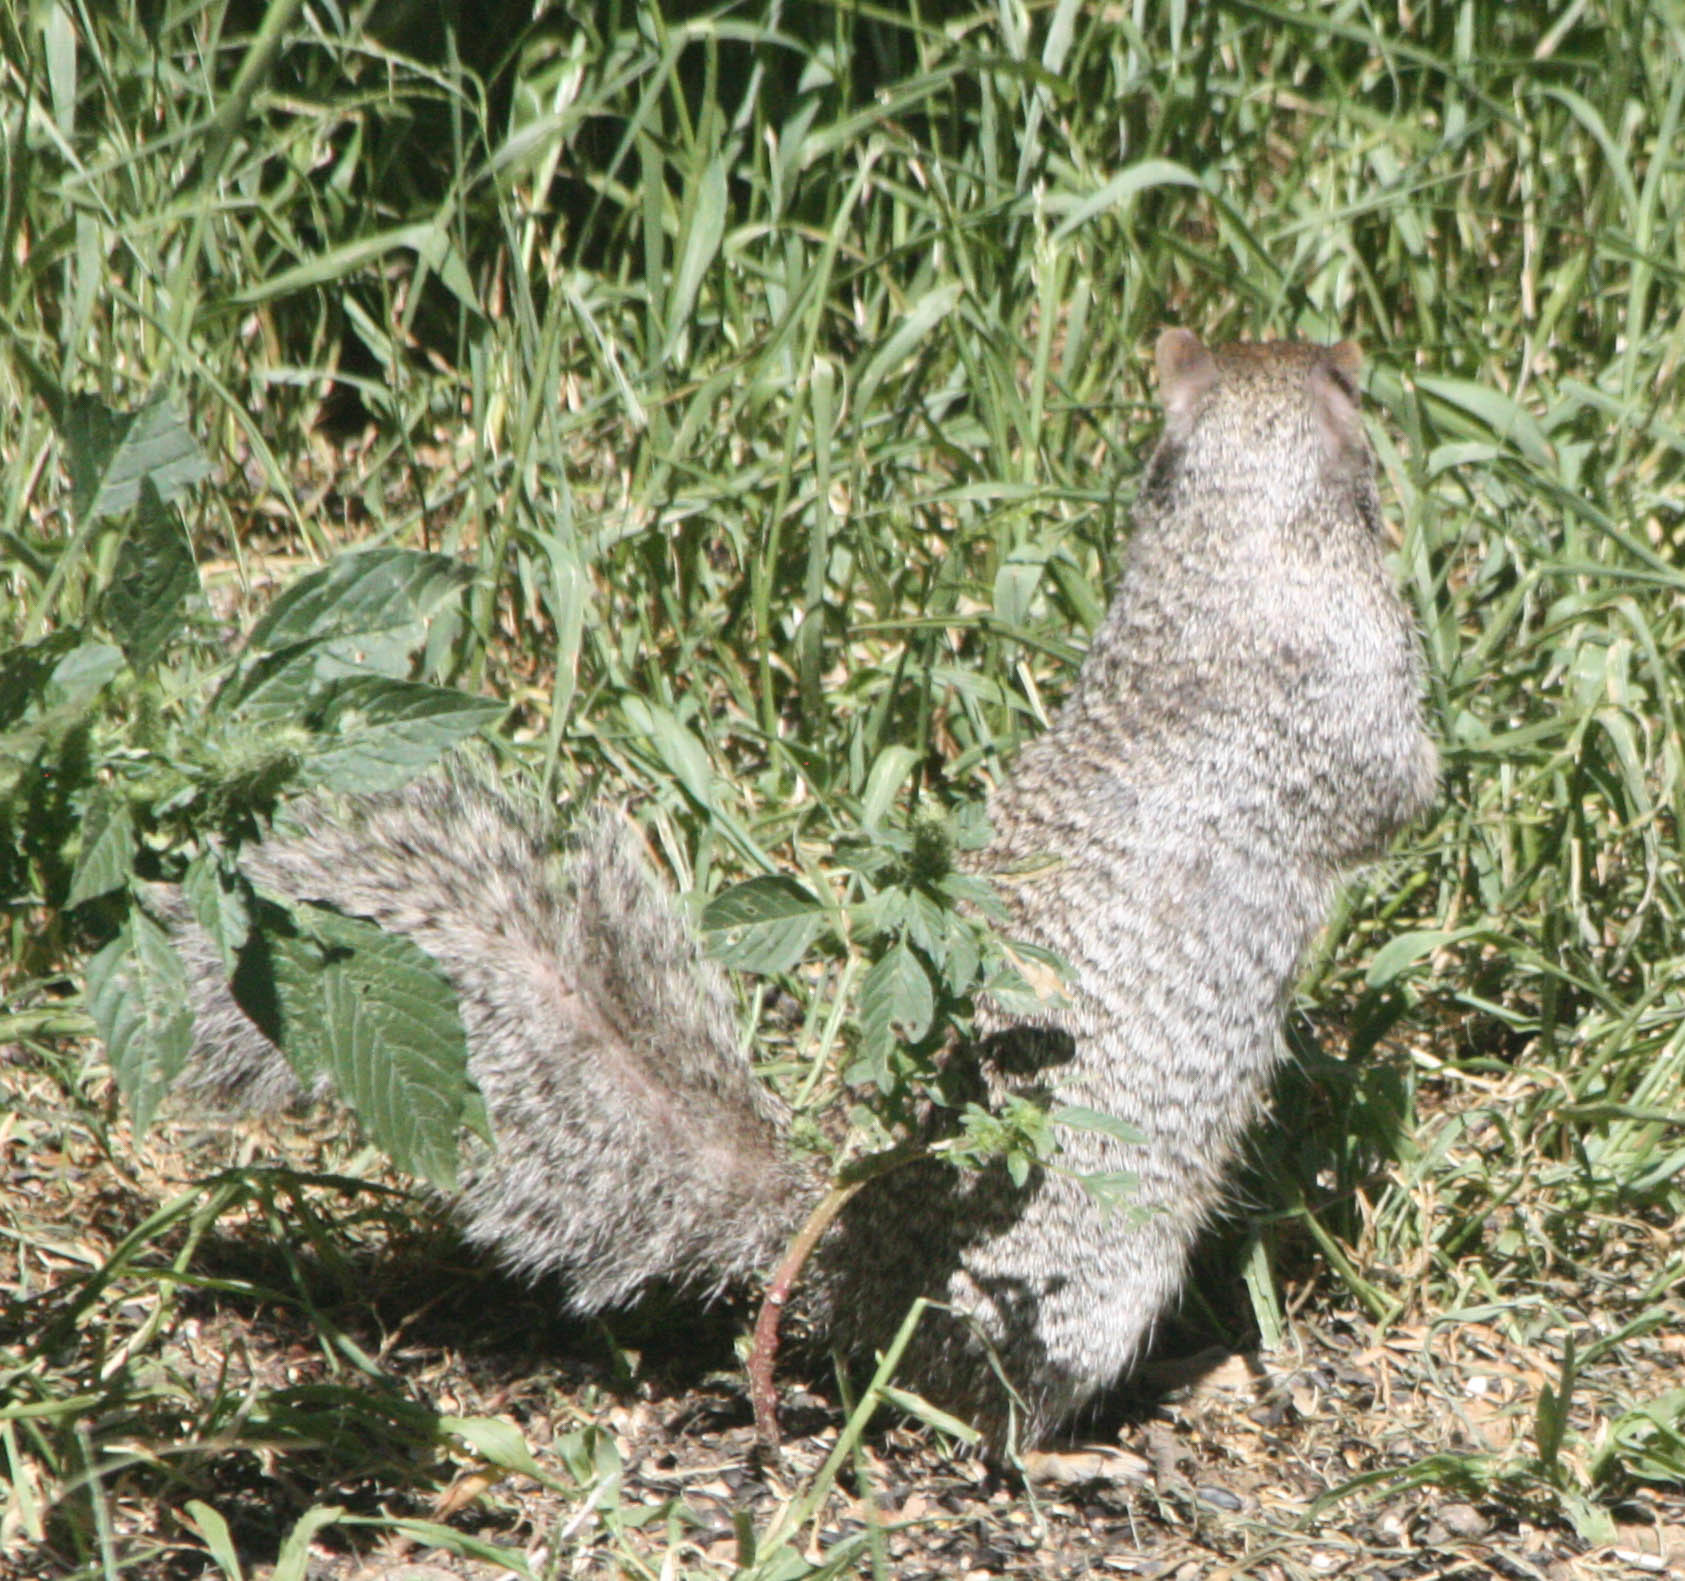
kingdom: Animalia
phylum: Chordata
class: Mammalia
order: Rodentia
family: Sciuridae
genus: Otospermophilus
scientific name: Otospermophilus variegatus
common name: Rock squirrel
